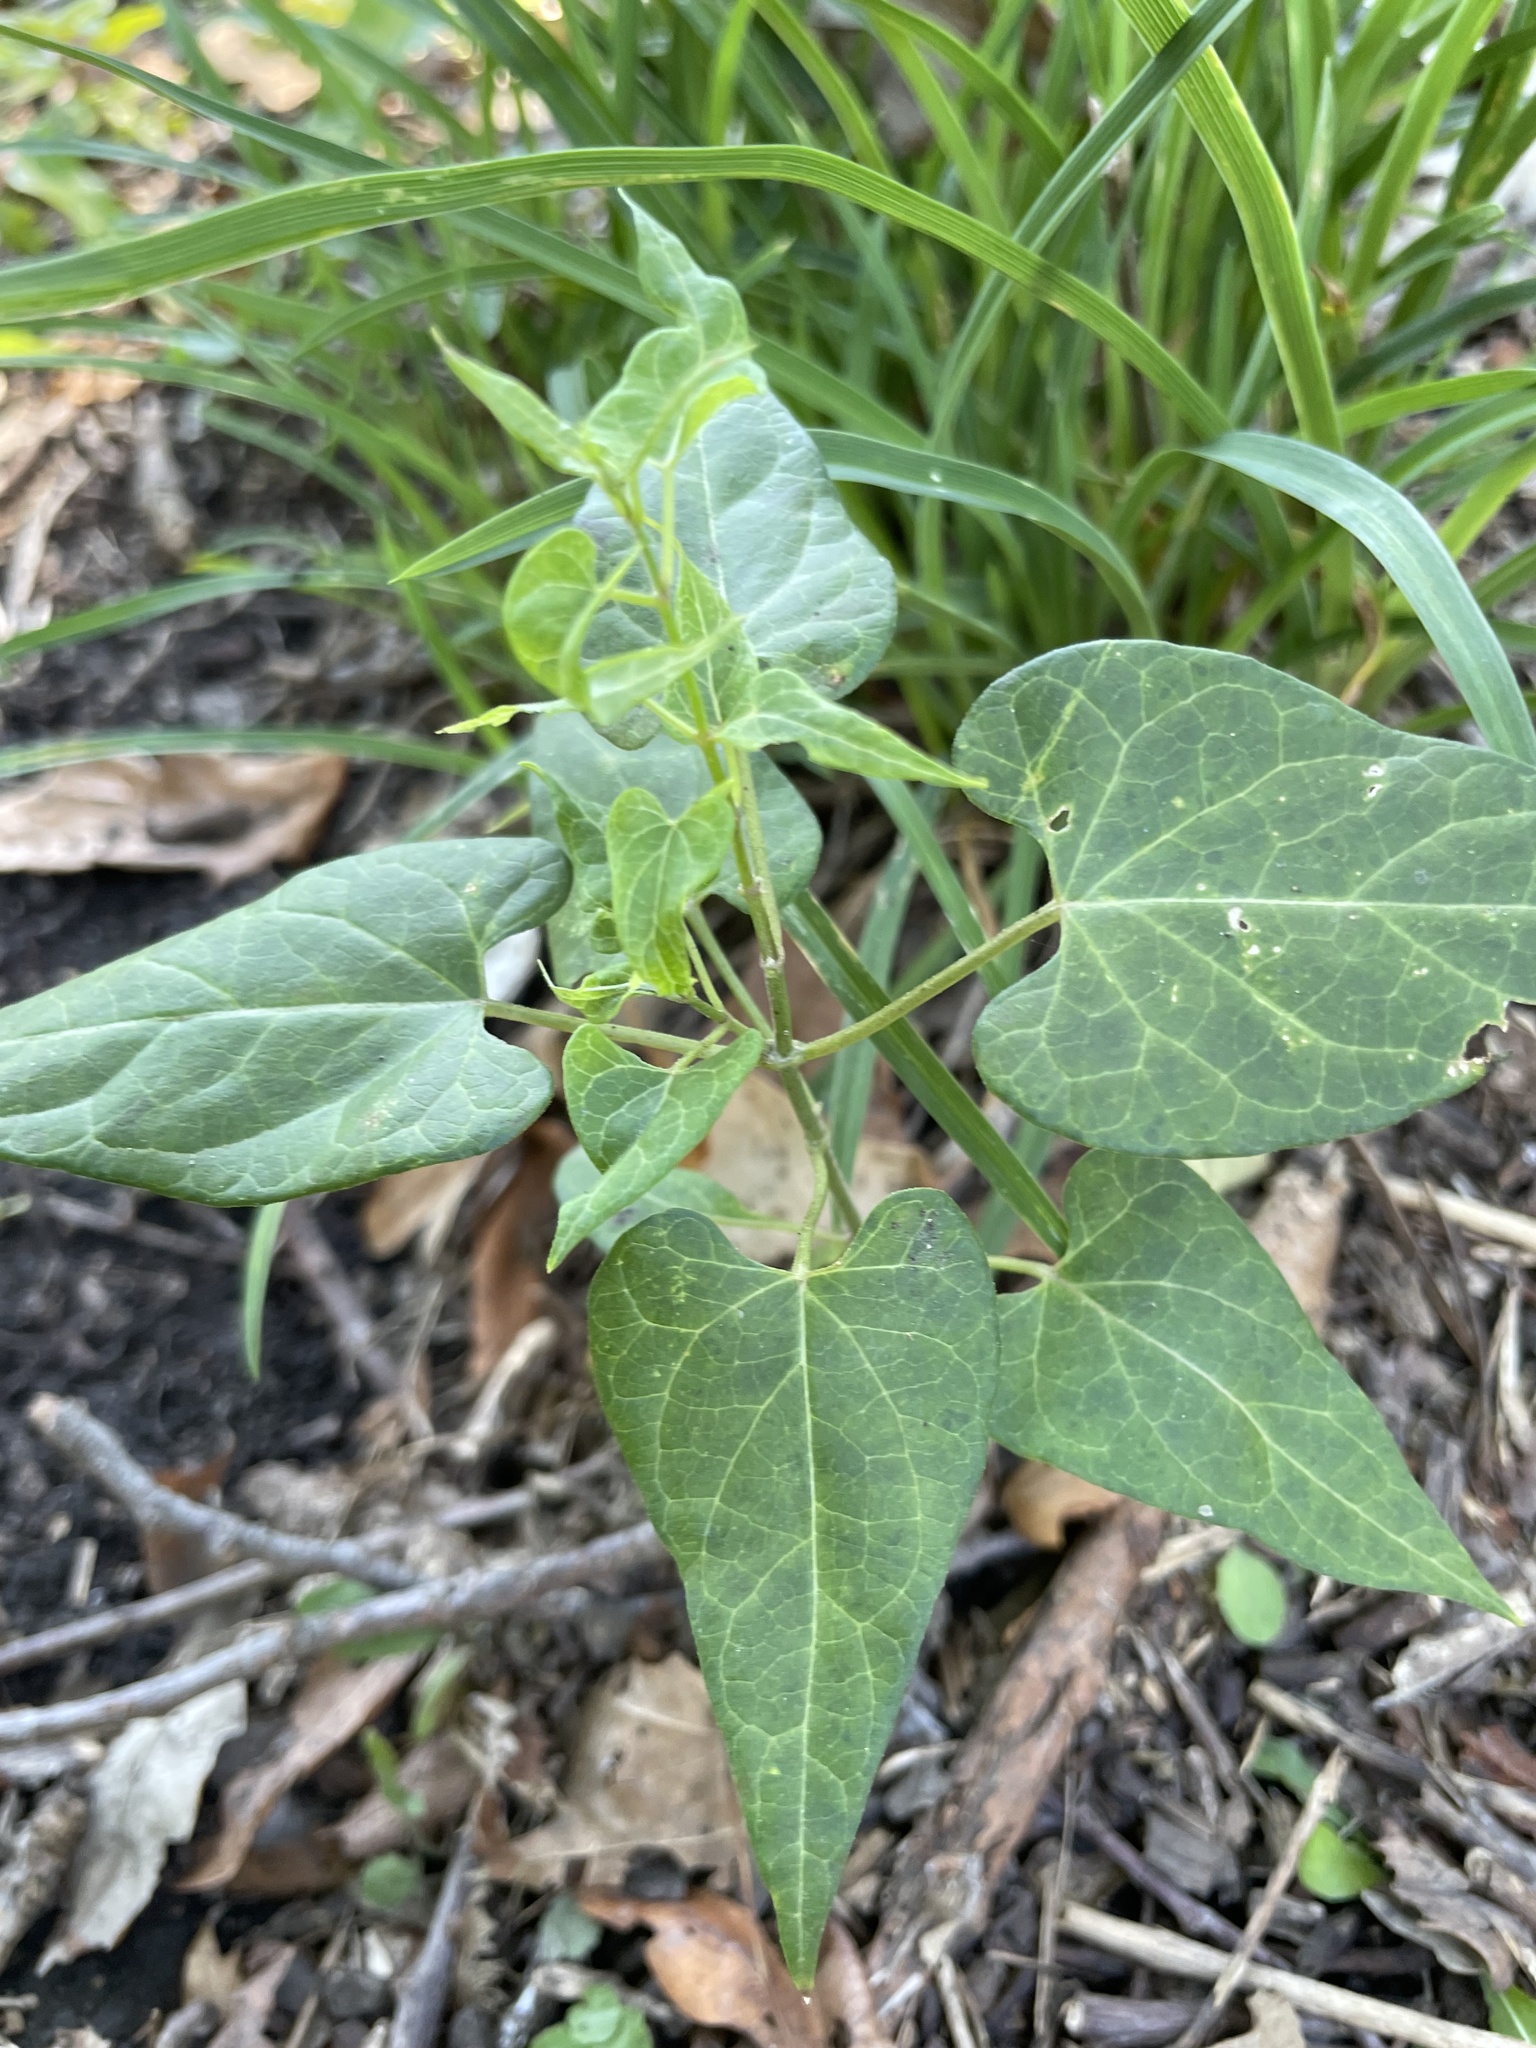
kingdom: Plantae
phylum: Tracheophyta
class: Magnoliopsida
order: Gentianales
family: Apocynaceae
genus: Cynanchum
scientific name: Cynanchum laeve
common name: Sandvine
